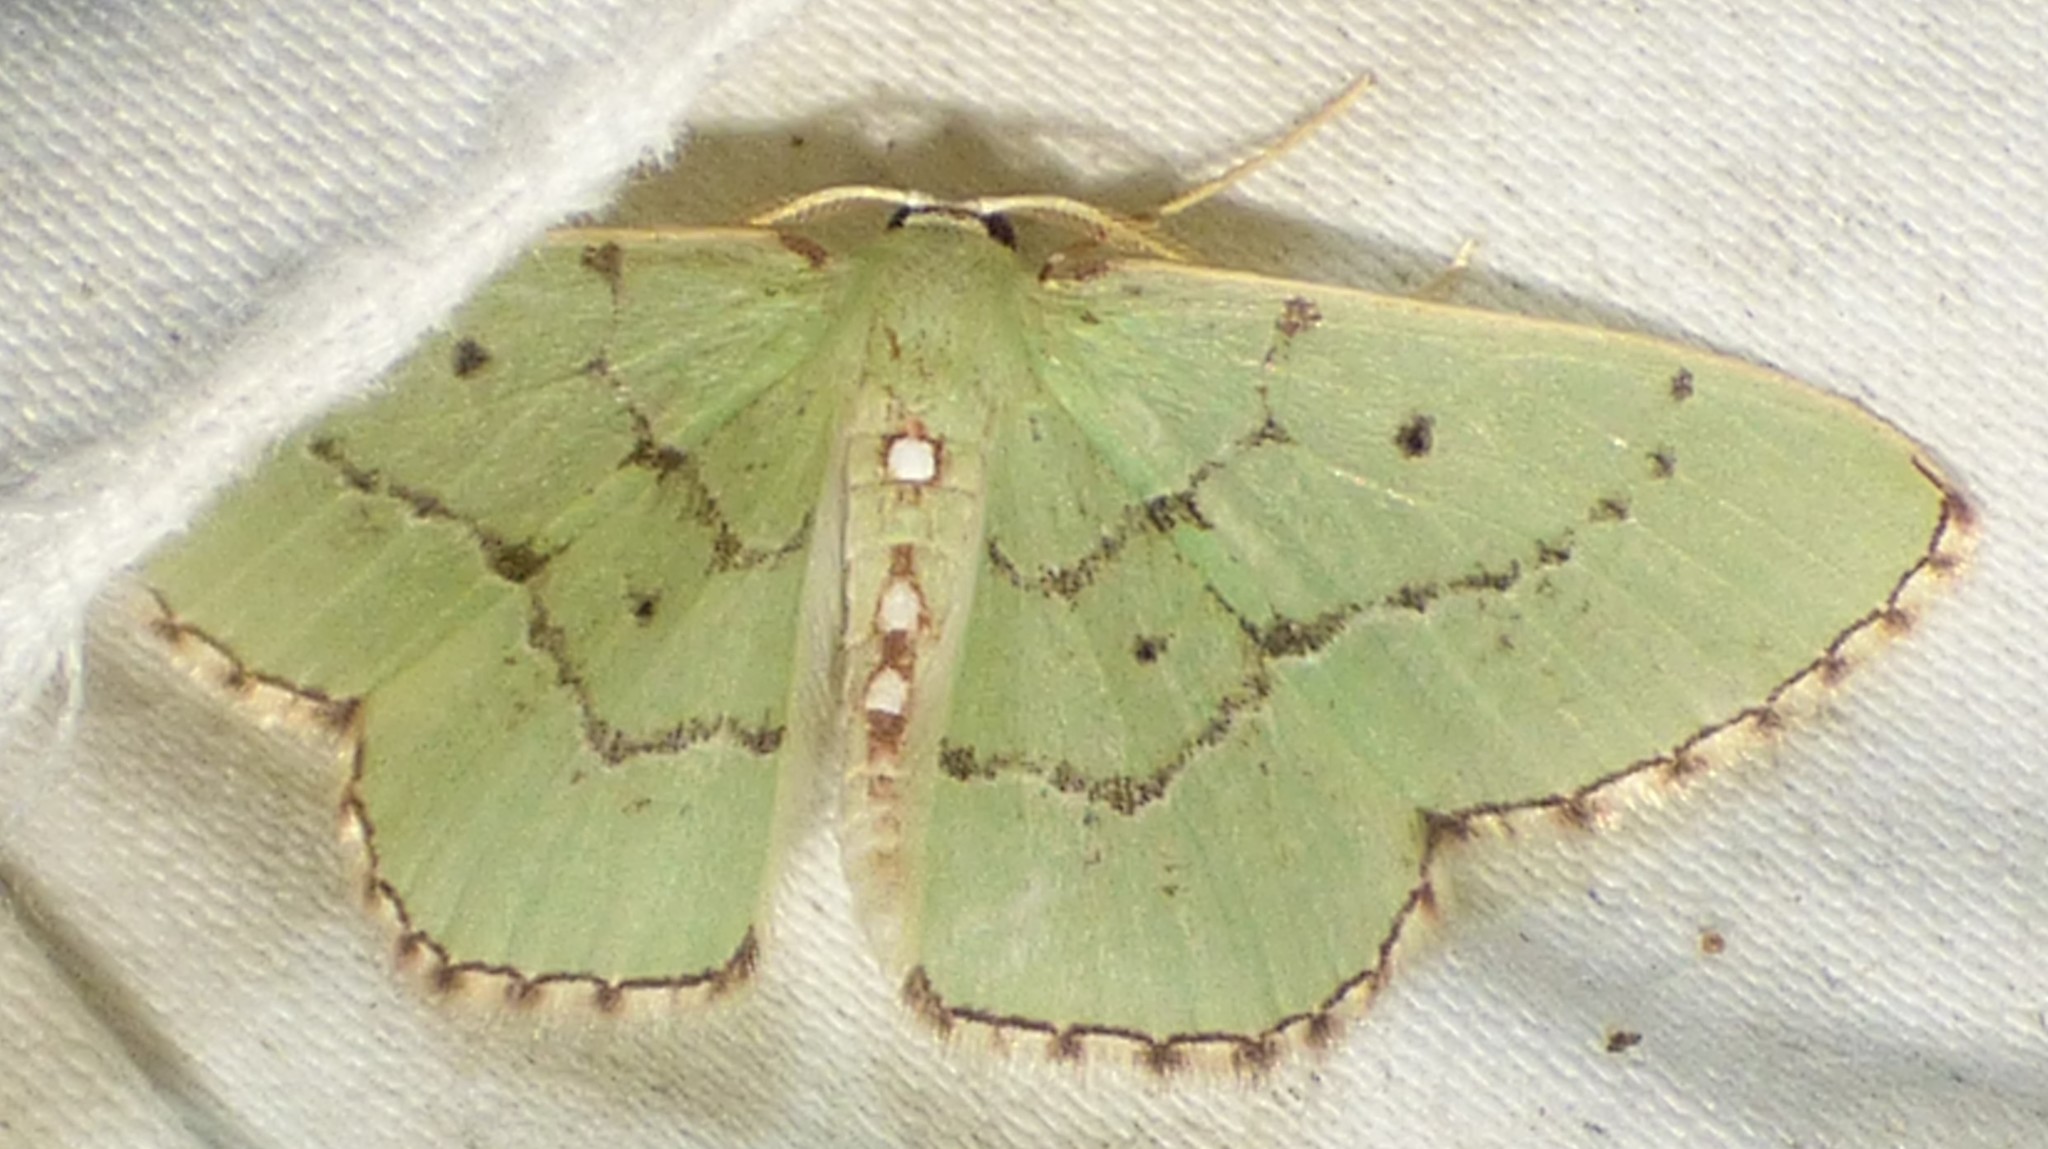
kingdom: Animalia
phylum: Arthropoda
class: Insecta
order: Lepidoptera
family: Geometridae
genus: Nemoria
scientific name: Nemoria lixaria
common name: Red-bordered emerald
